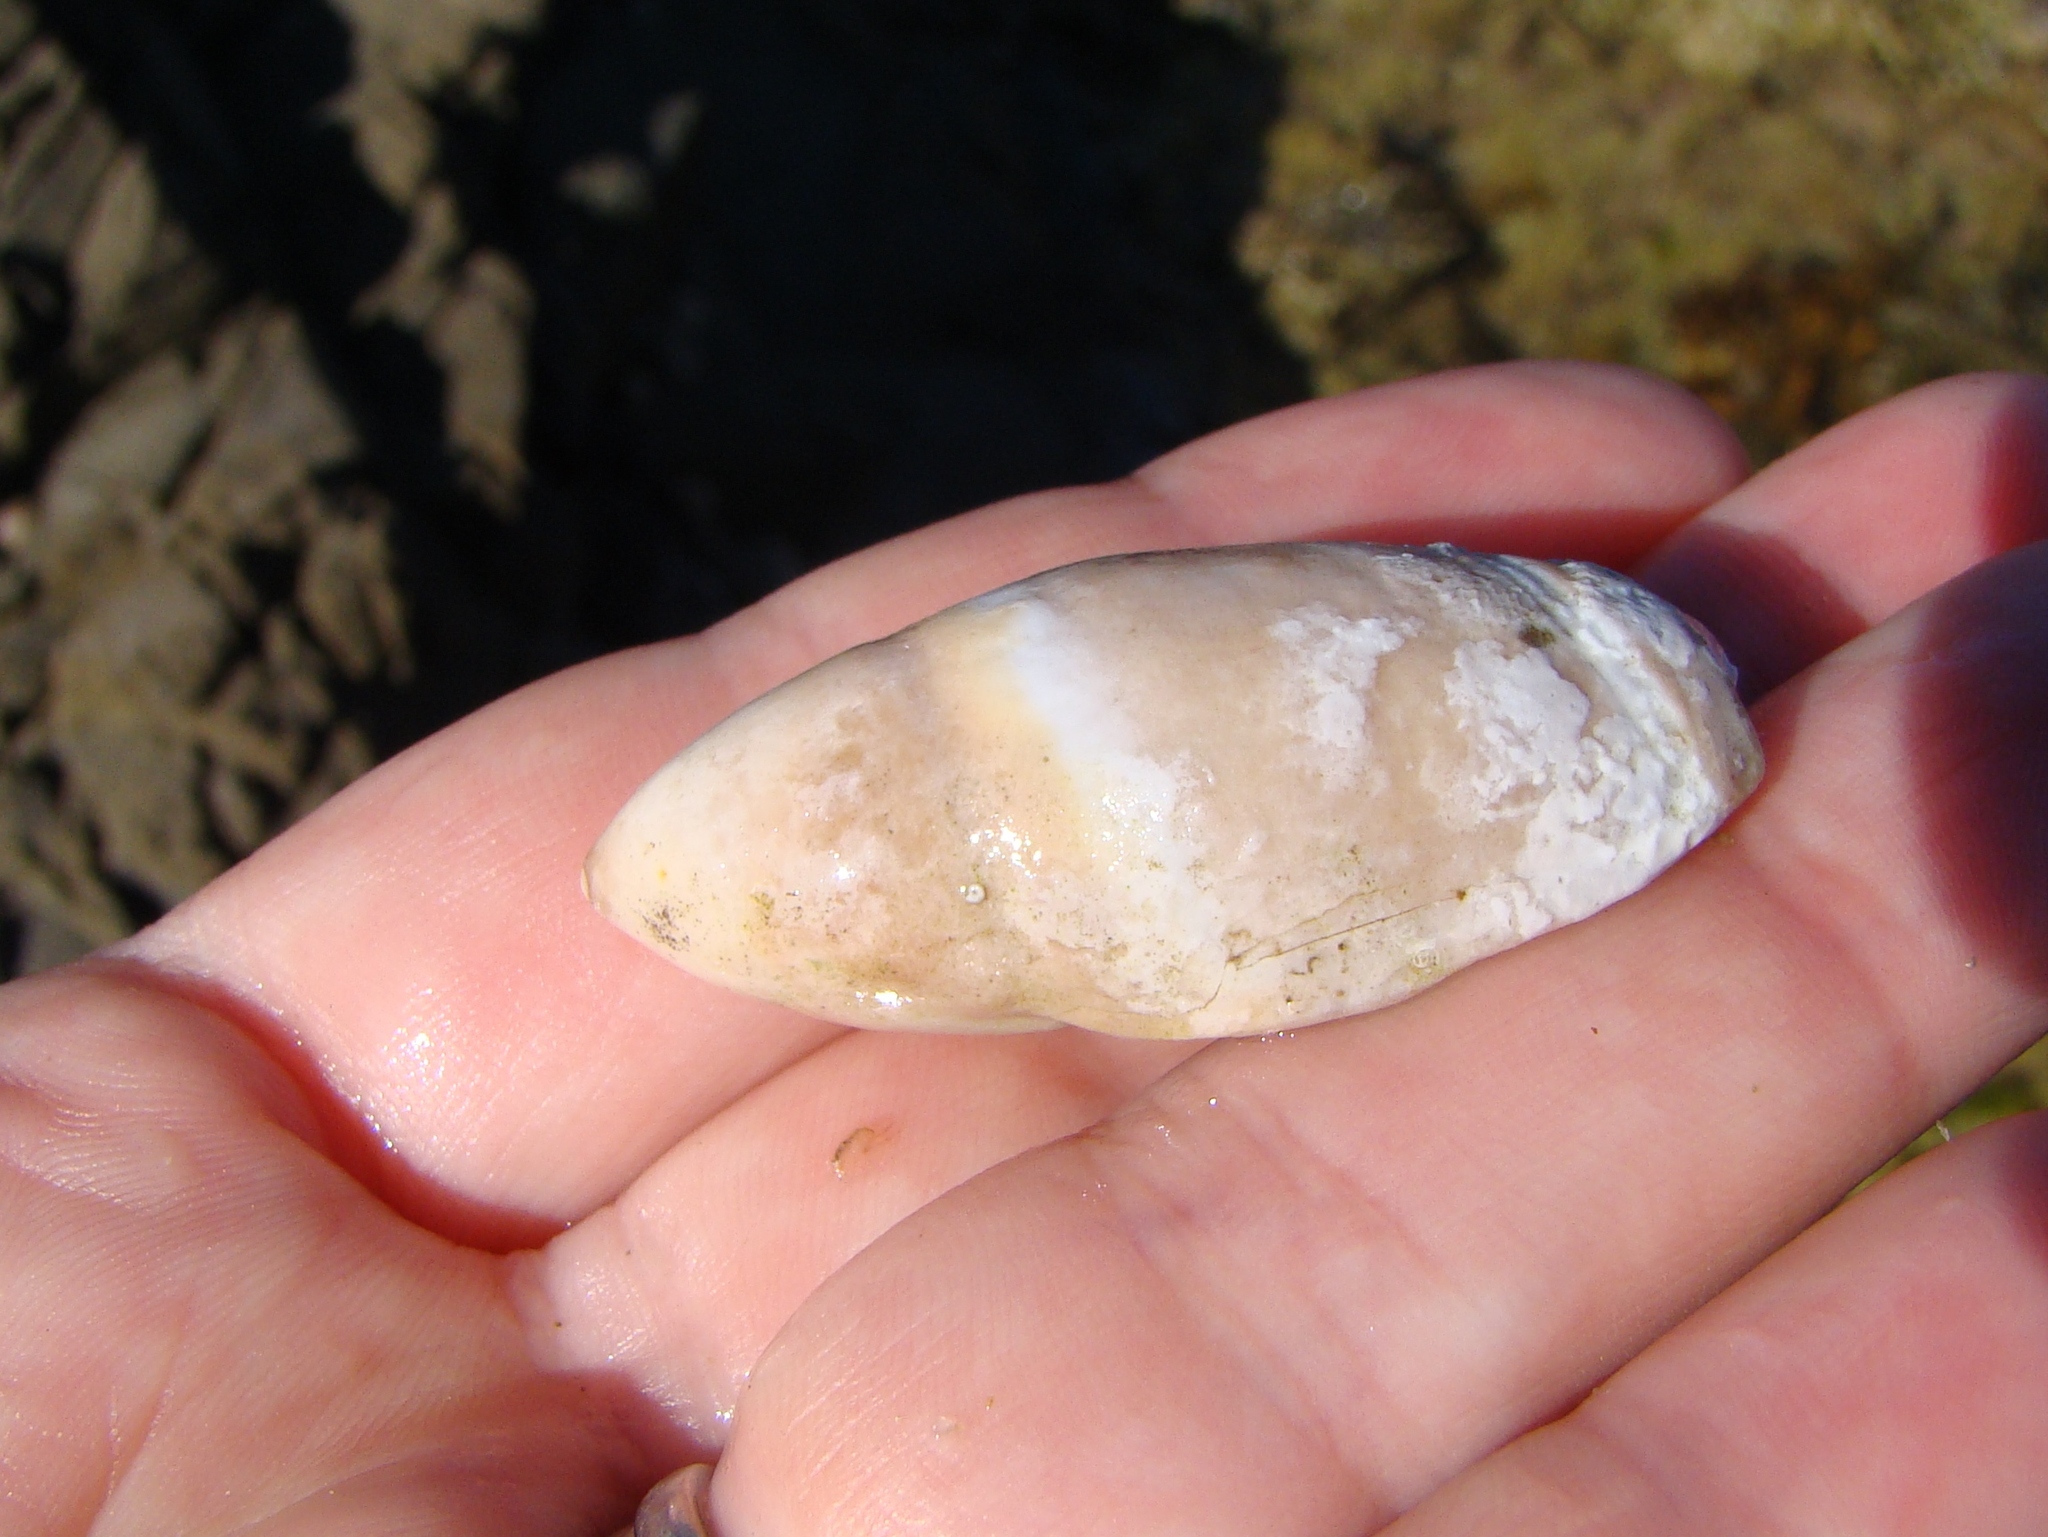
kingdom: Animalia
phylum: Mollusca
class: Gastropoda
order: Neogastropoda
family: Ancillariidae
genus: Amalda
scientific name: Amalda mucronata
